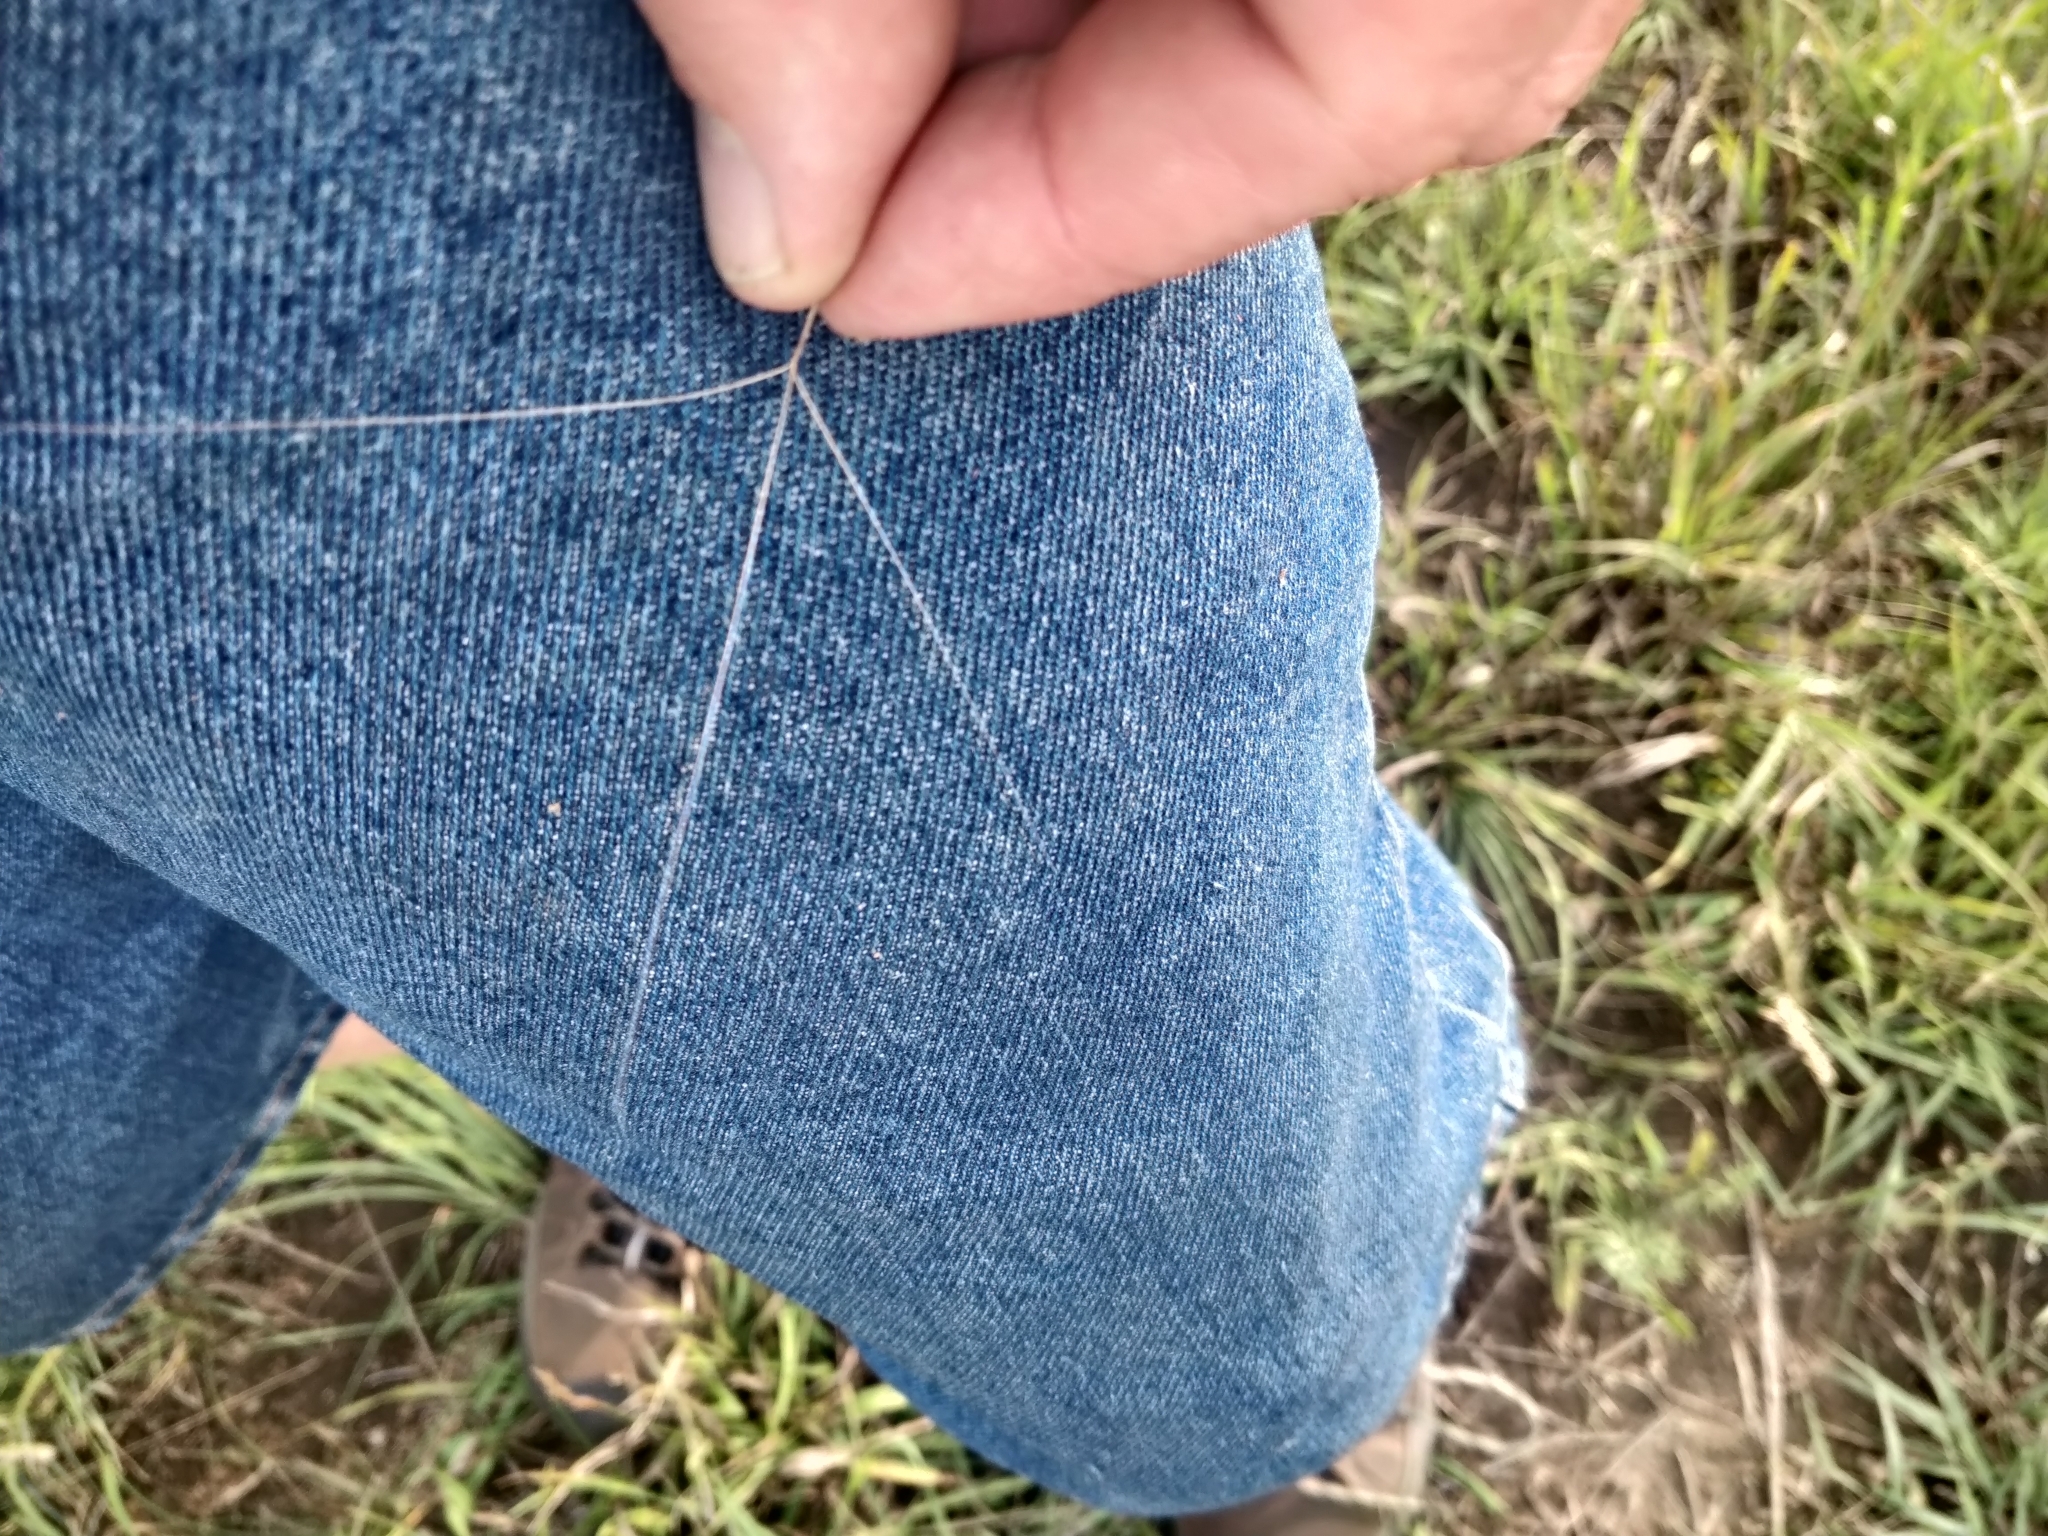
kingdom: Plantae
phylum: Tracheophyta
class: Liliopsida
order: Poales
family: Poaceae
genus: Aristida
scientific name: Aristida purpurea
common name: Purple threeawn
